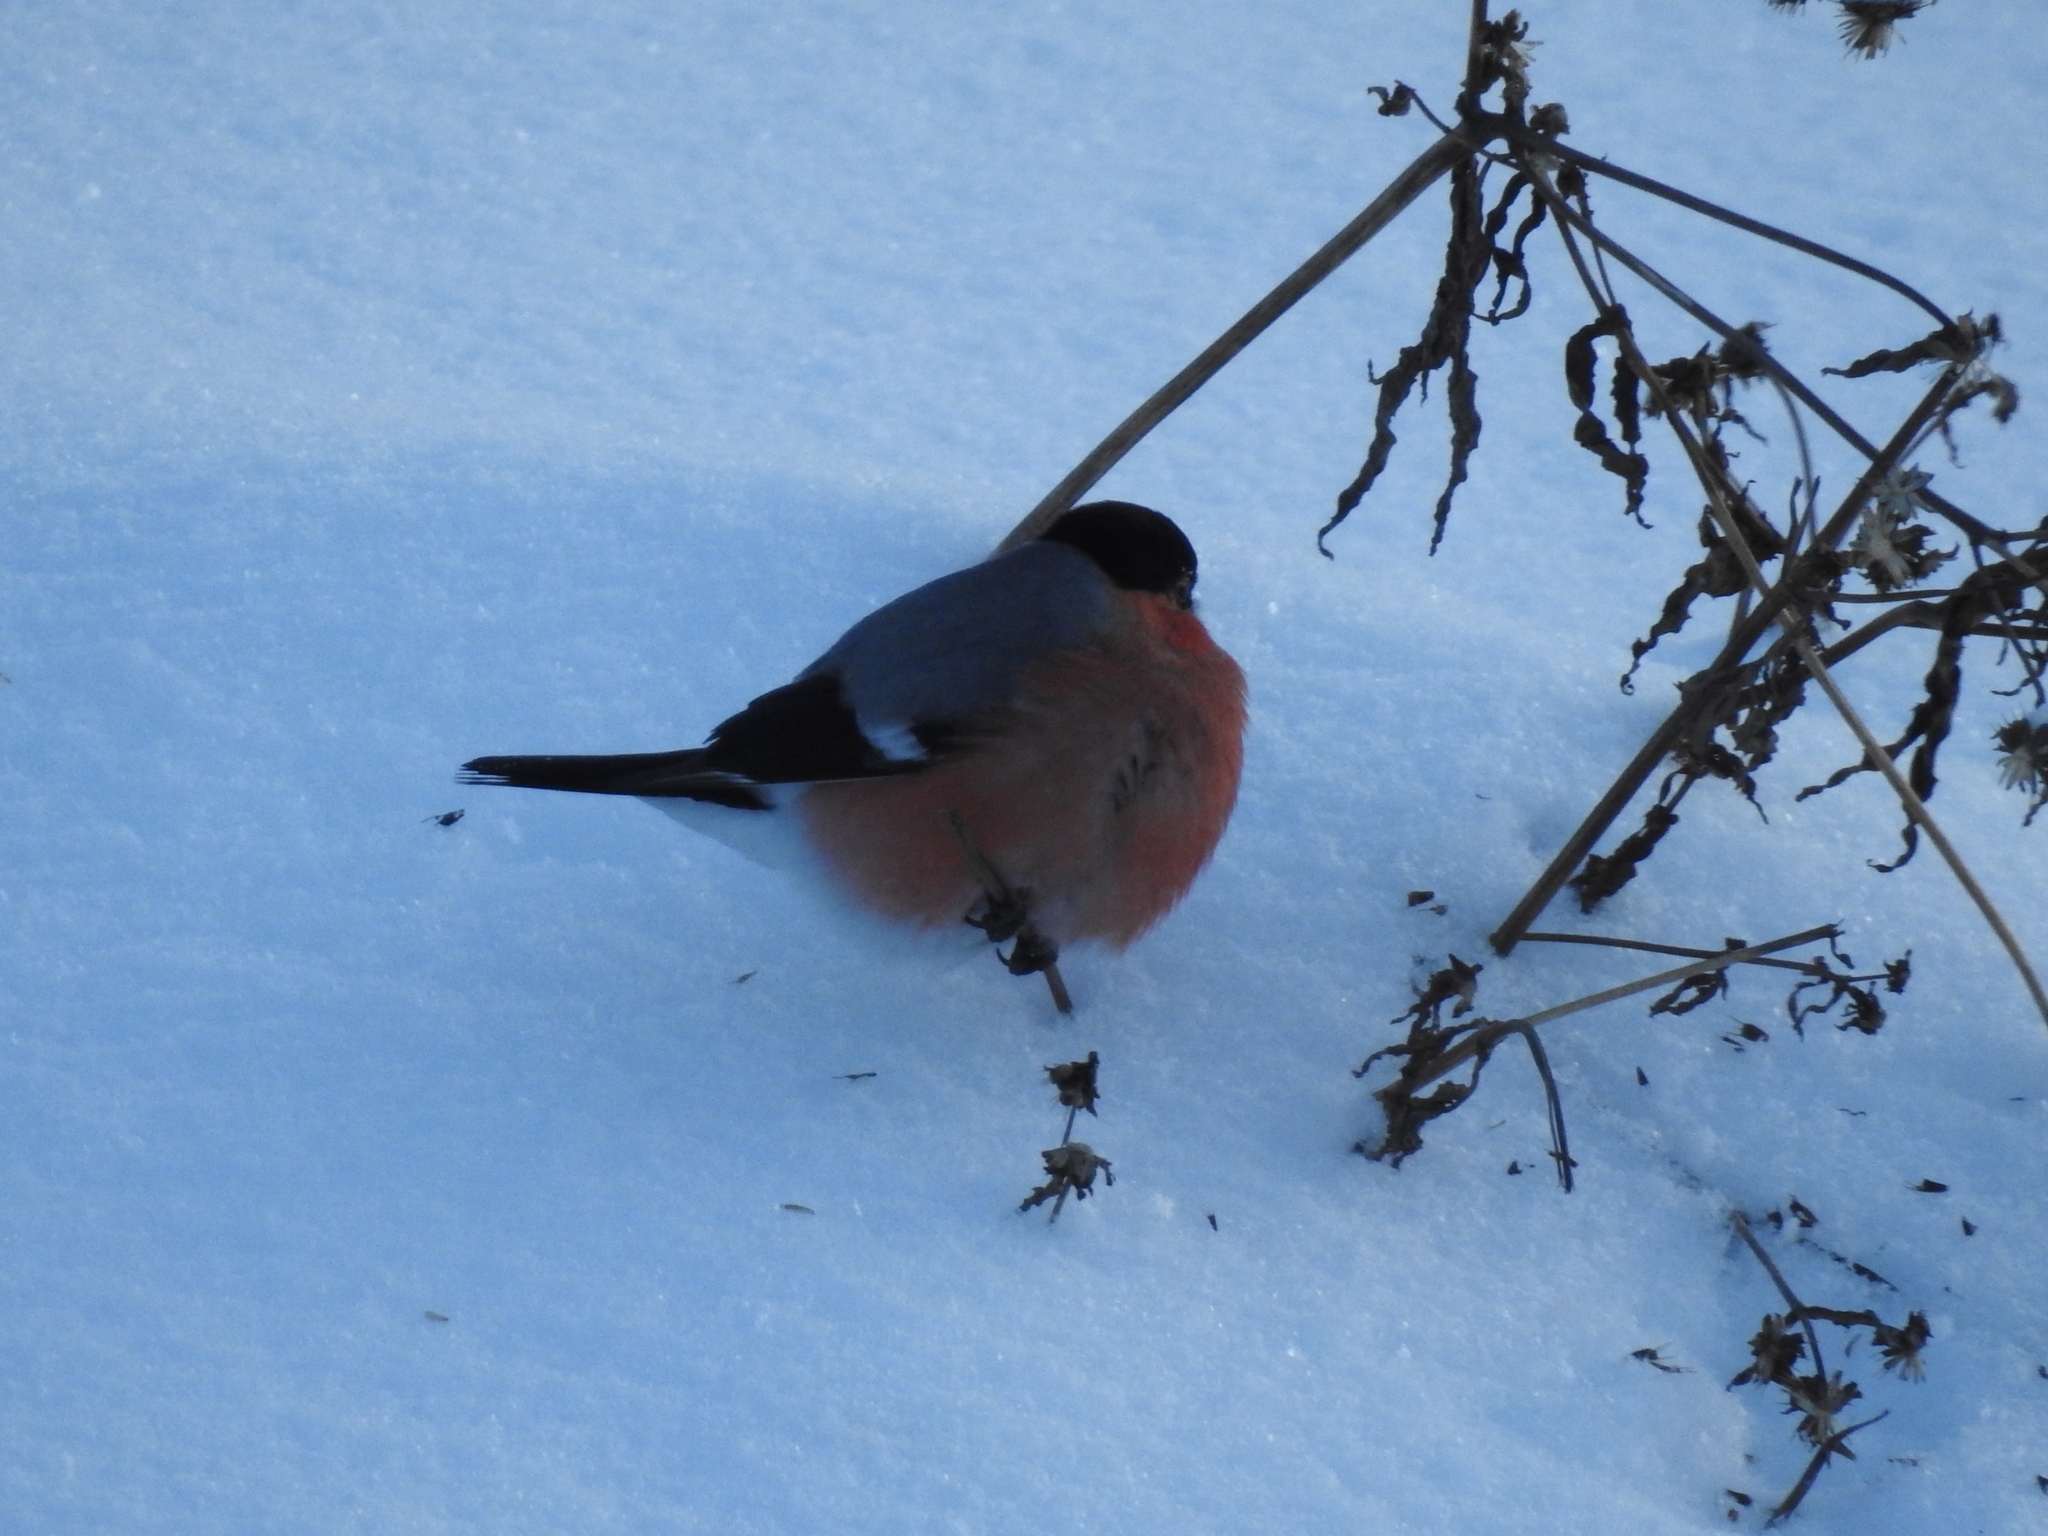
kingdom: Animalia
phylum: Chordata
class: Aves
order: Passeriformes
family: Fringillidae
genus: Pyrrhula
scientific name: Pyrrhula pyrrhula
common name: Eurasian bullfinch
